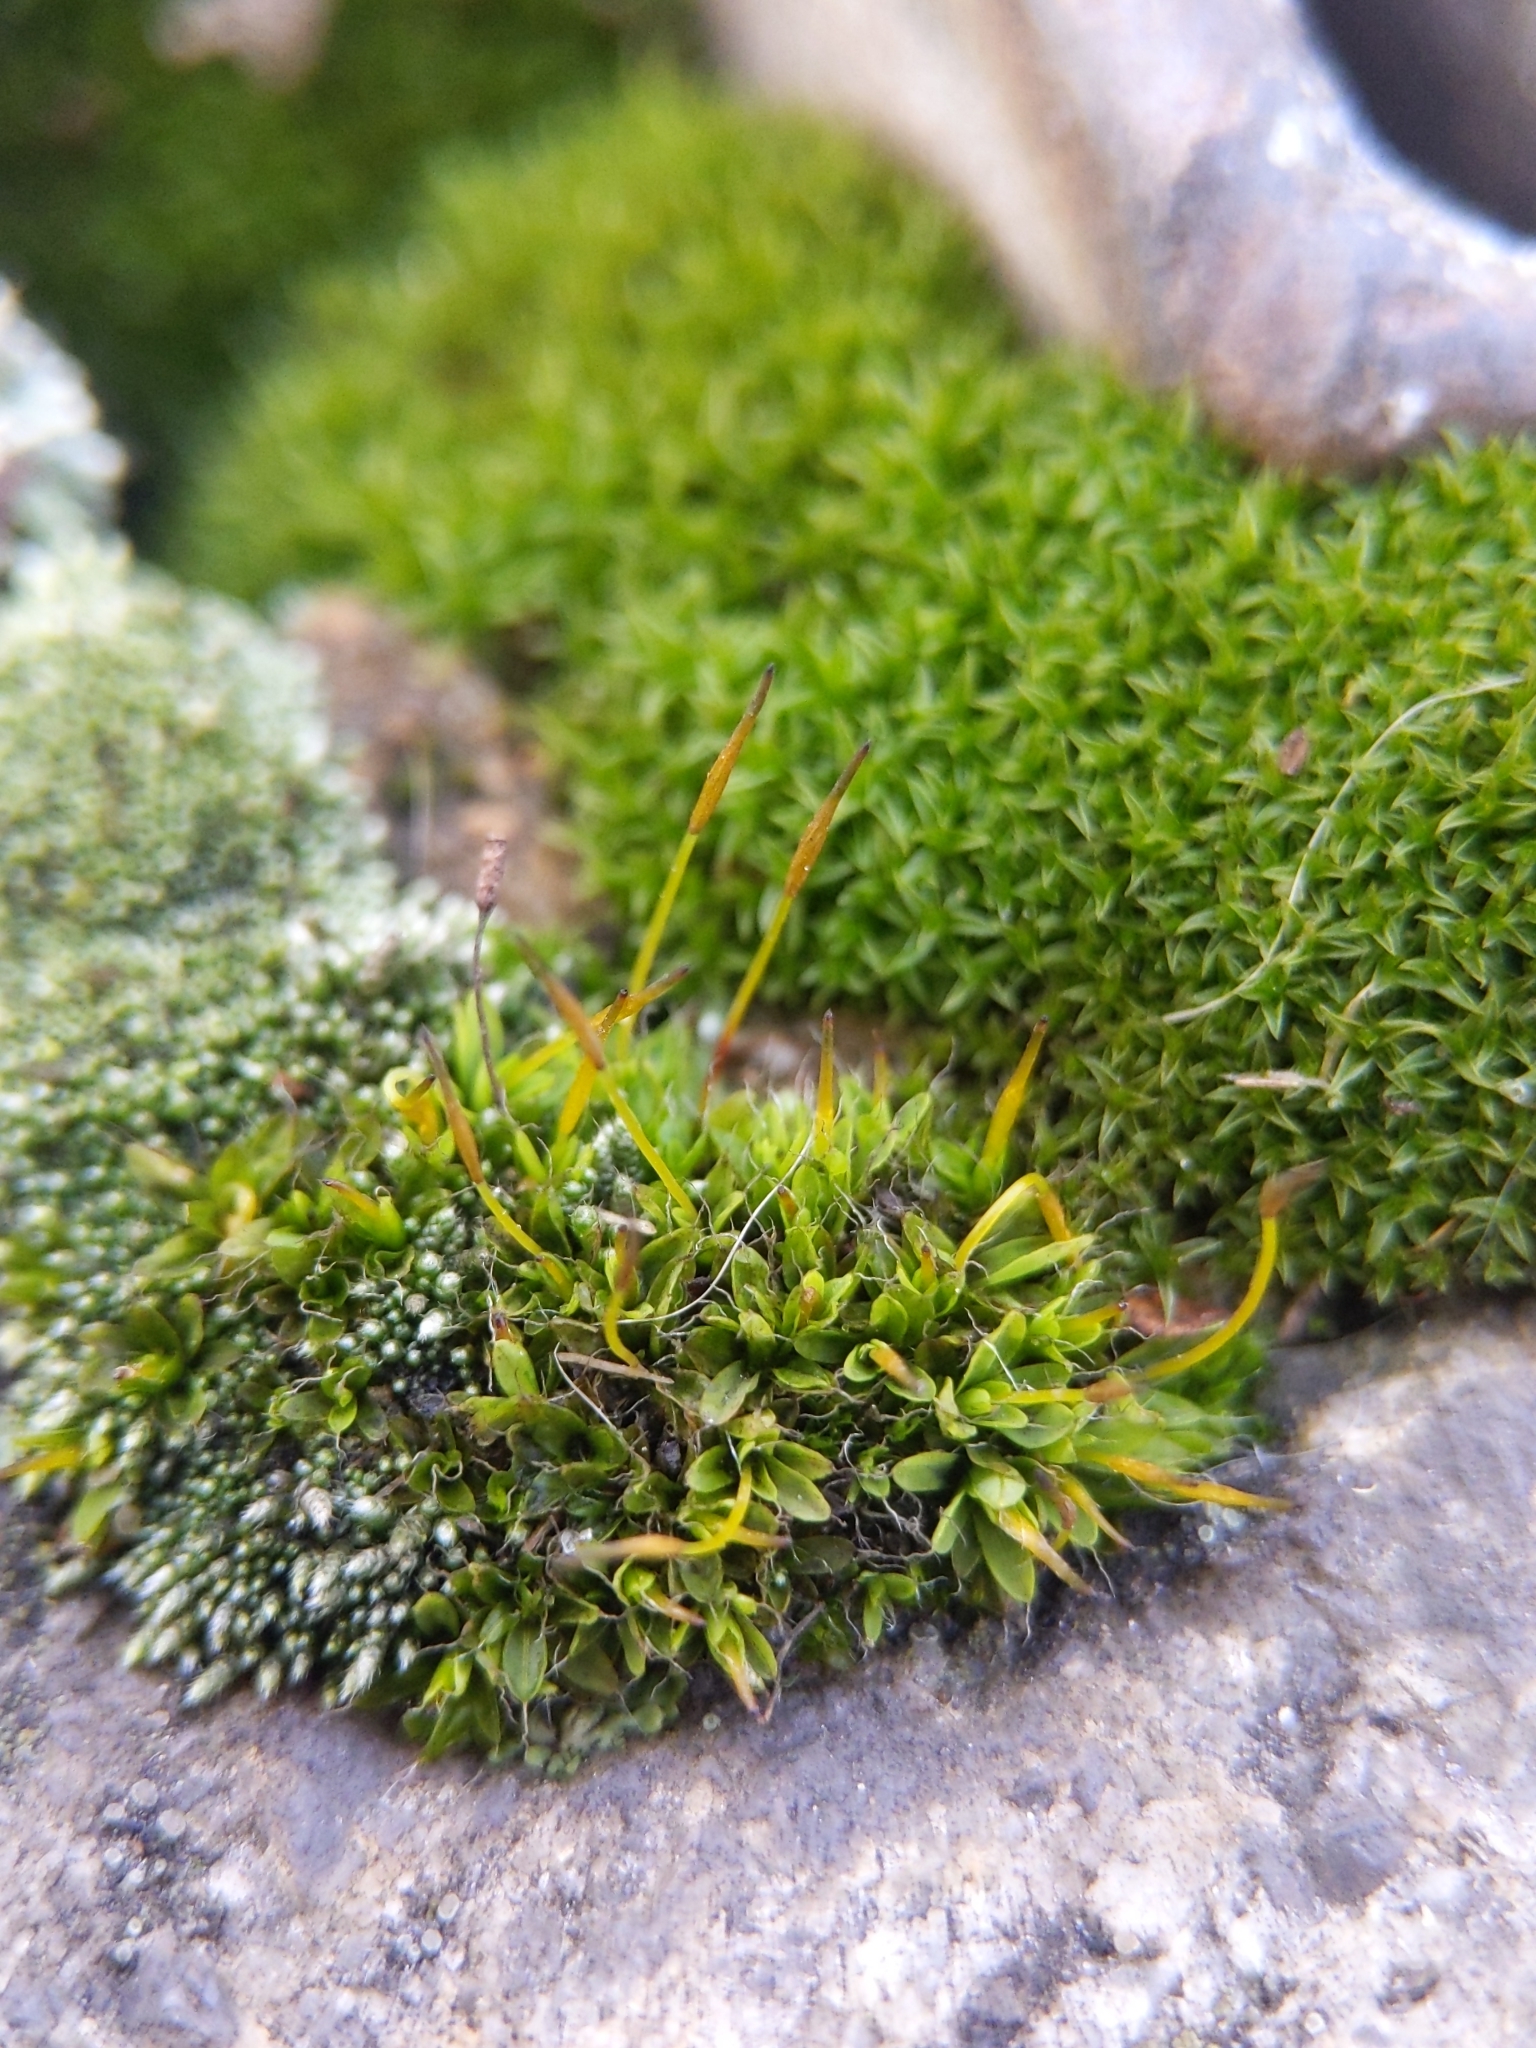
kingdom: Plantae
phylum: Bryophyta
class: Bryopsida
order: Pottiales
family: Pottiaceae
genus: Tortula
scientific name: Tortula muralis
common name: Wall screw-moss
